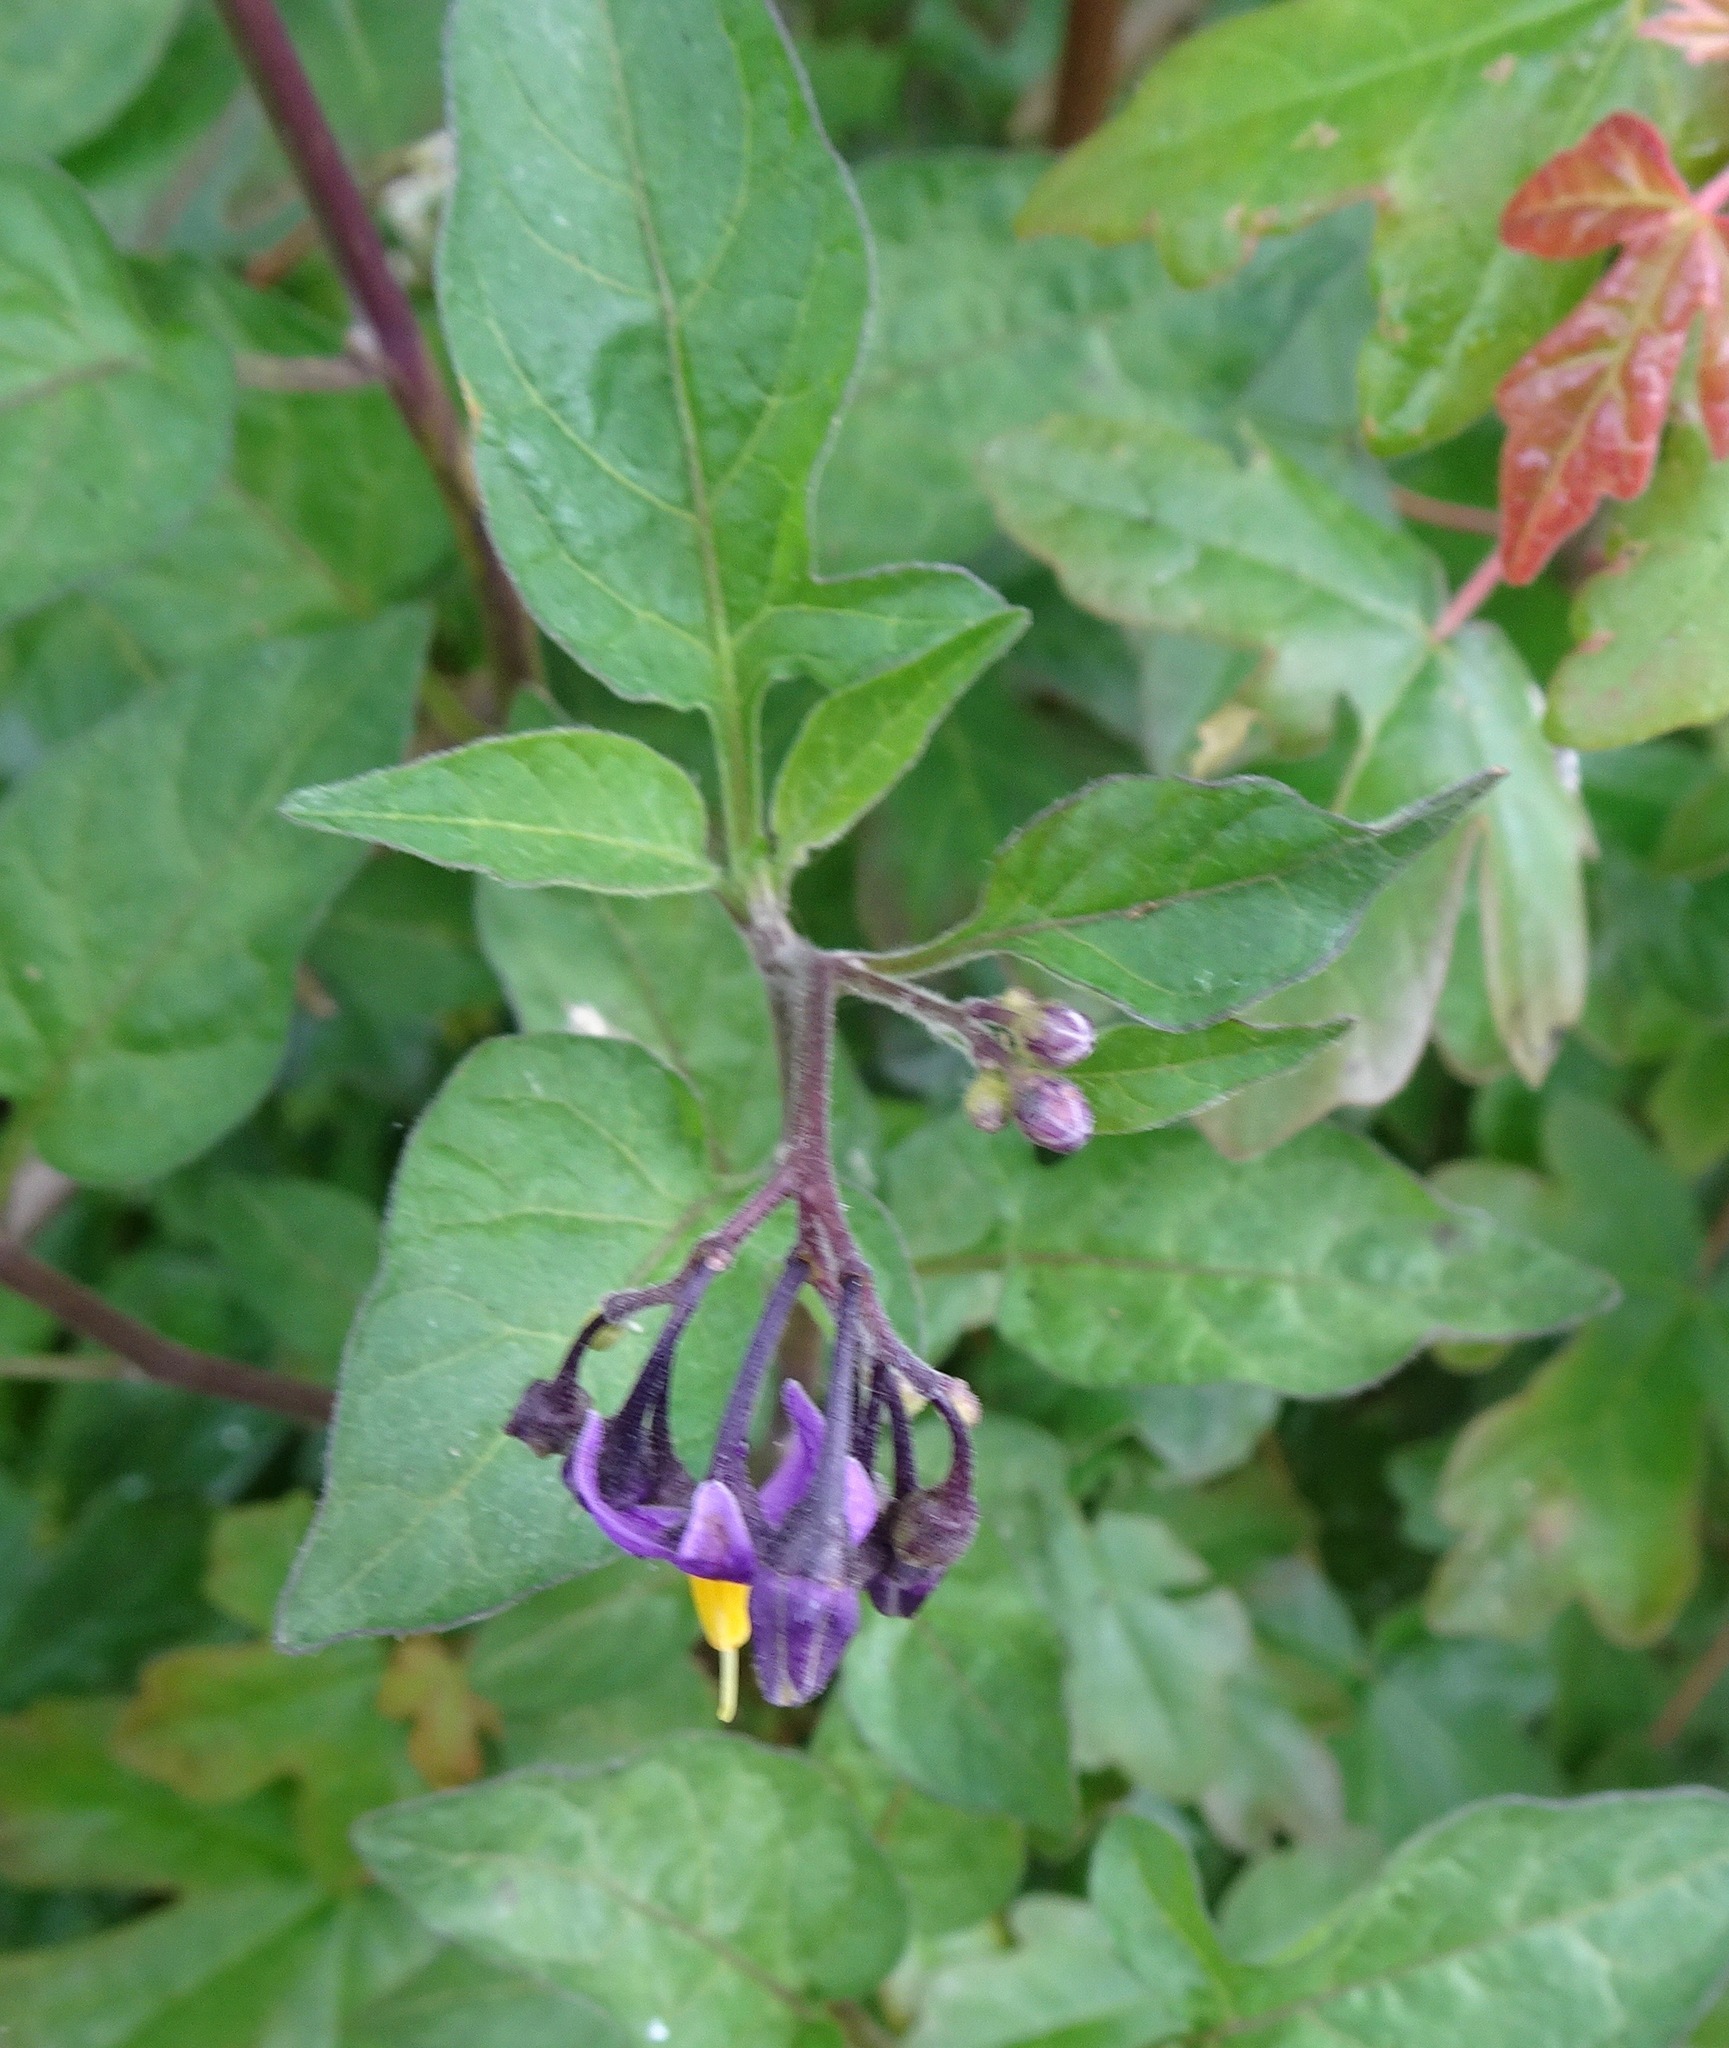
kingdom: Plantae
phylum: Tracheophyta
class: Magnoliopsida
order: Solanales
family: Solanaceae
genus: Solanum
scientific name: Solanum dulcamara
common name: Climbing nightshade
